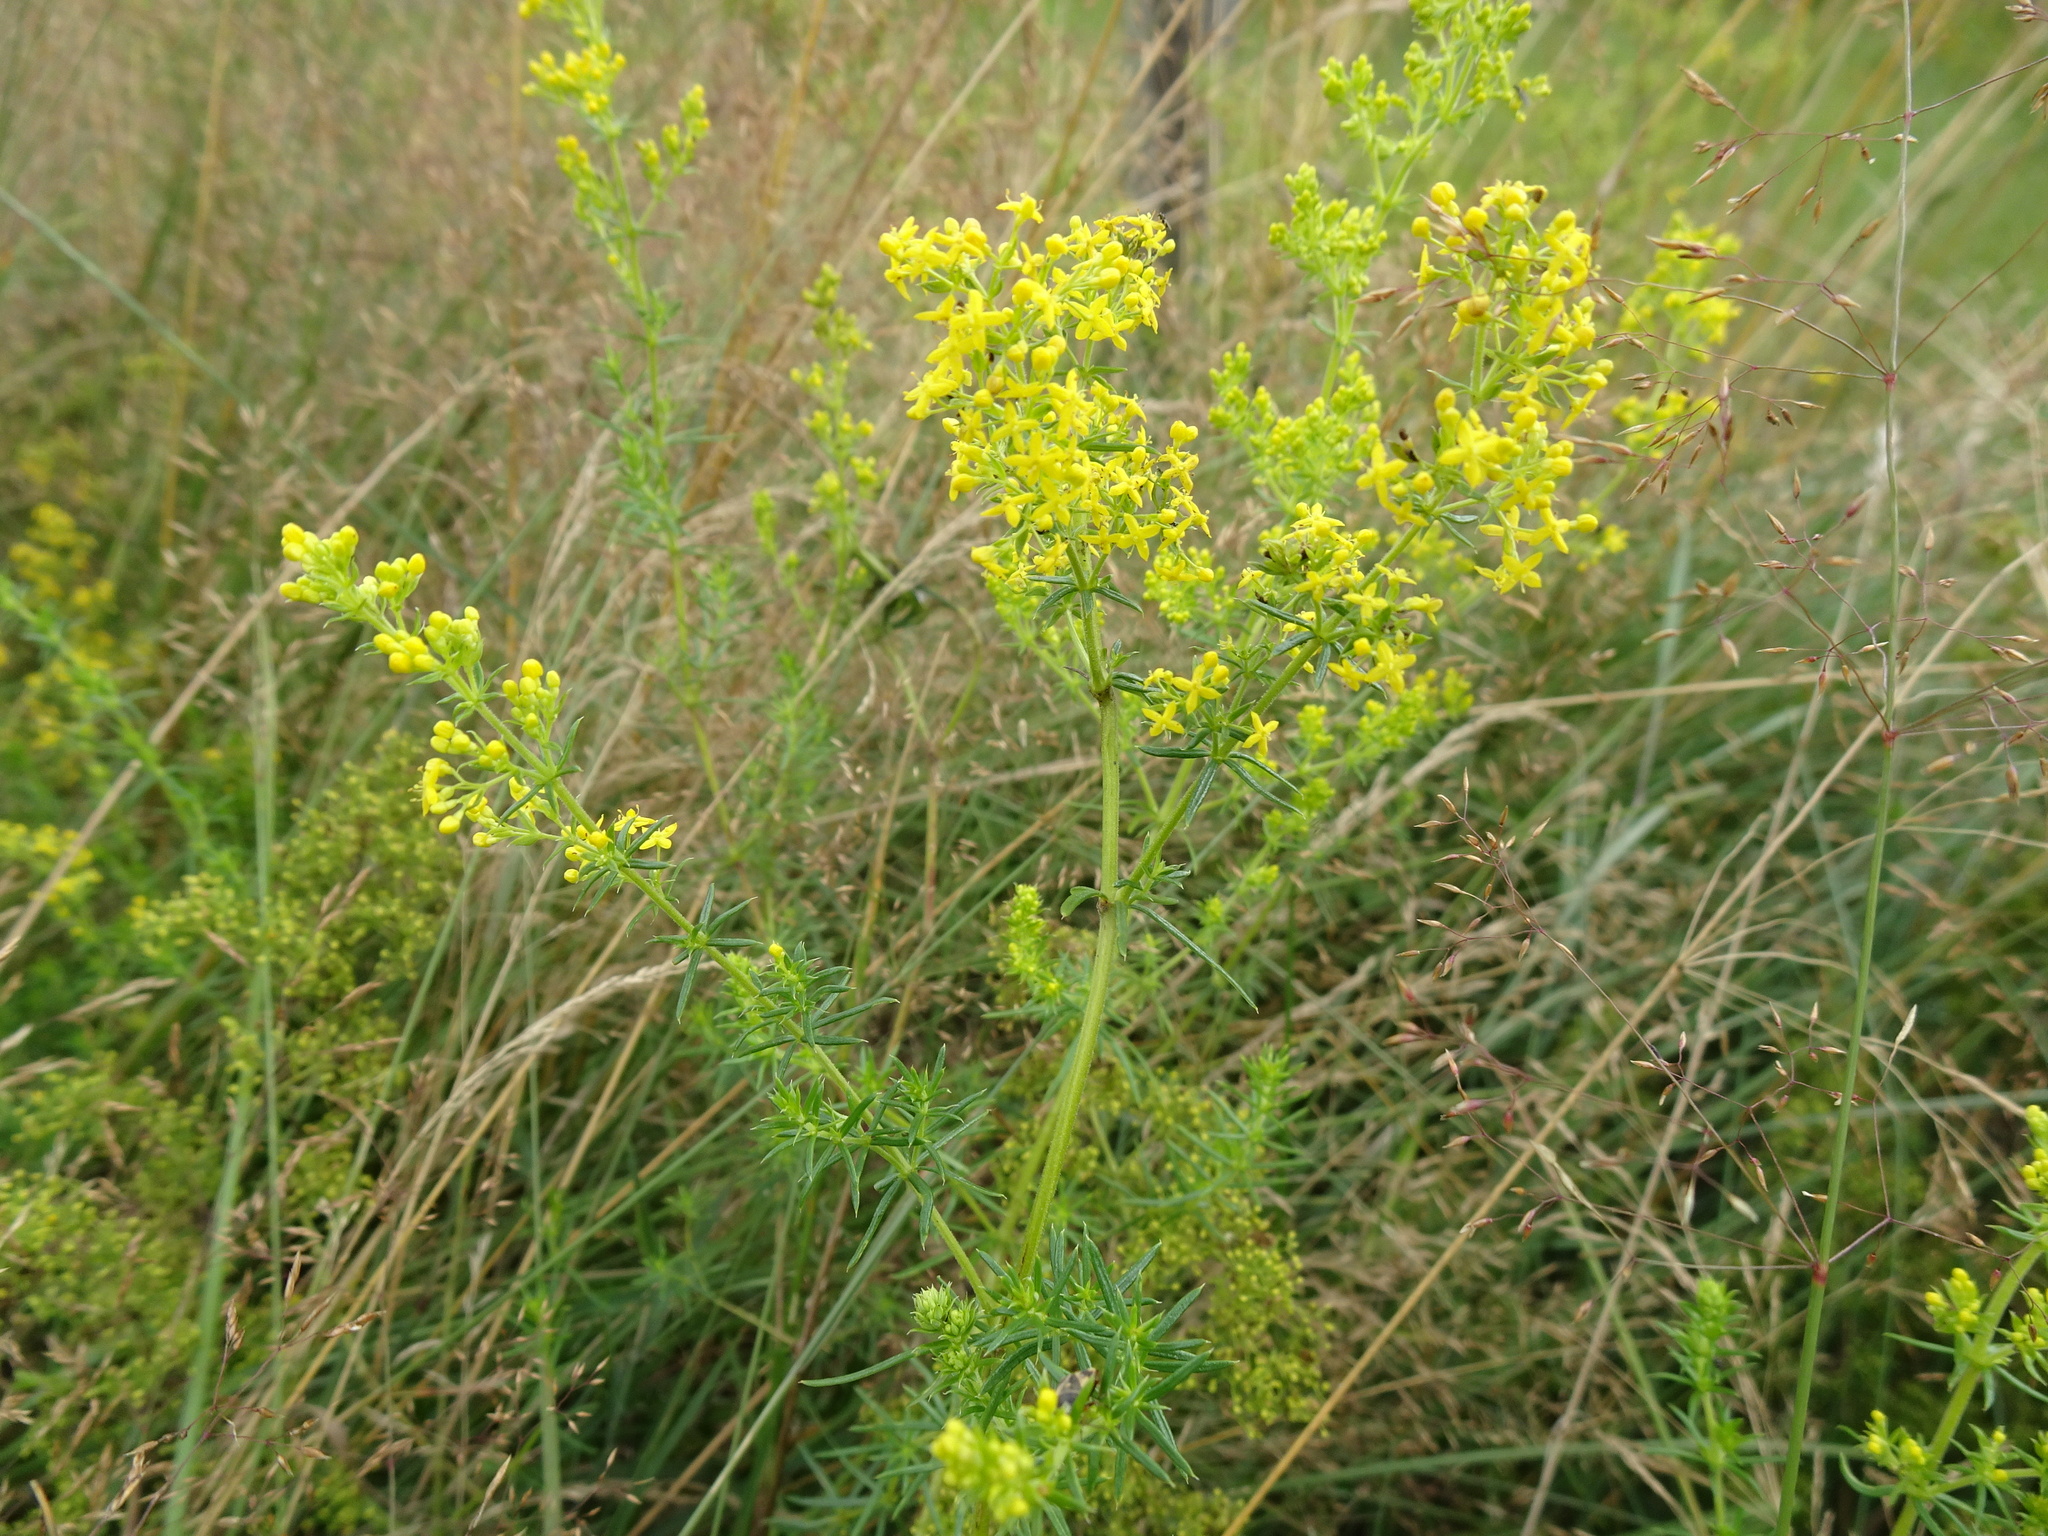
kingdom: Plantae
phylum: Tracheophyta
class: Magnoliopsida
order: Gentianales
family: Rubiaceae
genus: Galium
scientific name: Galium verum
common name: Lady's bedstraw
